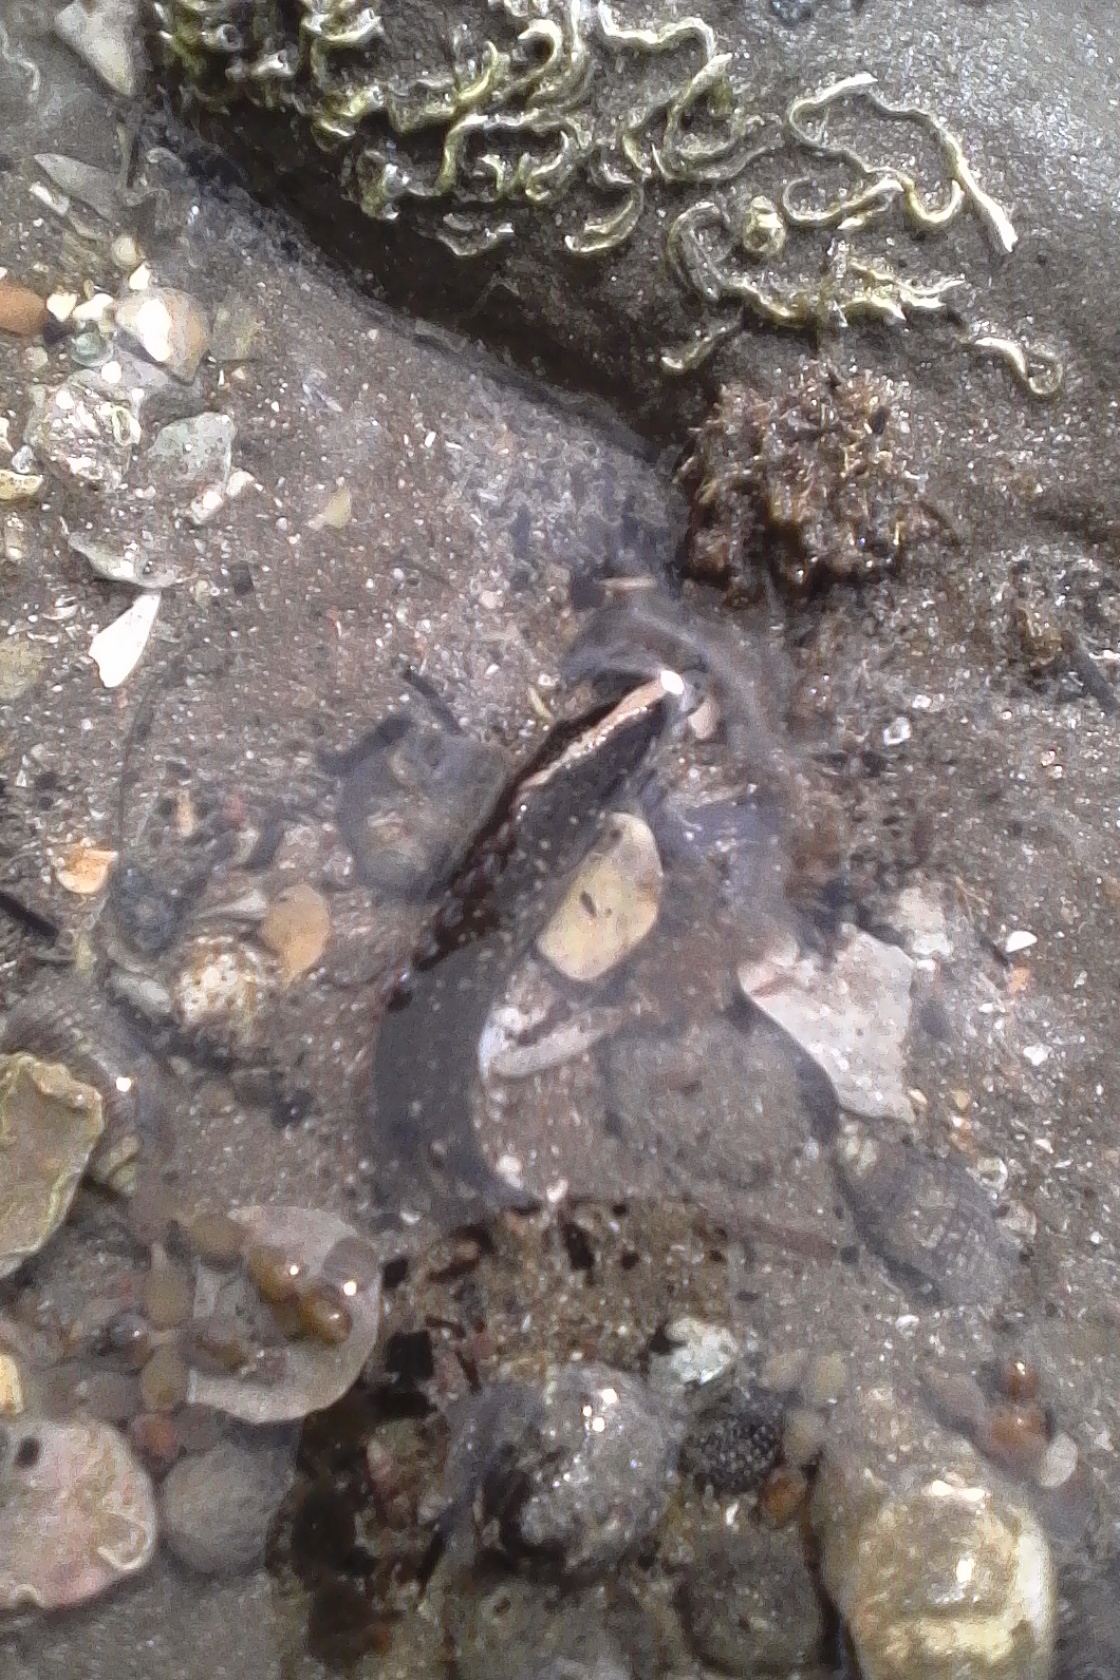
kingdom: Animalia
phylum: Chordata
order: Perciformes
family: Plesiopidae
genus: Acanthoclinus
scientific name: Acanthoclinus fuscus
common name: Olive rockfish
